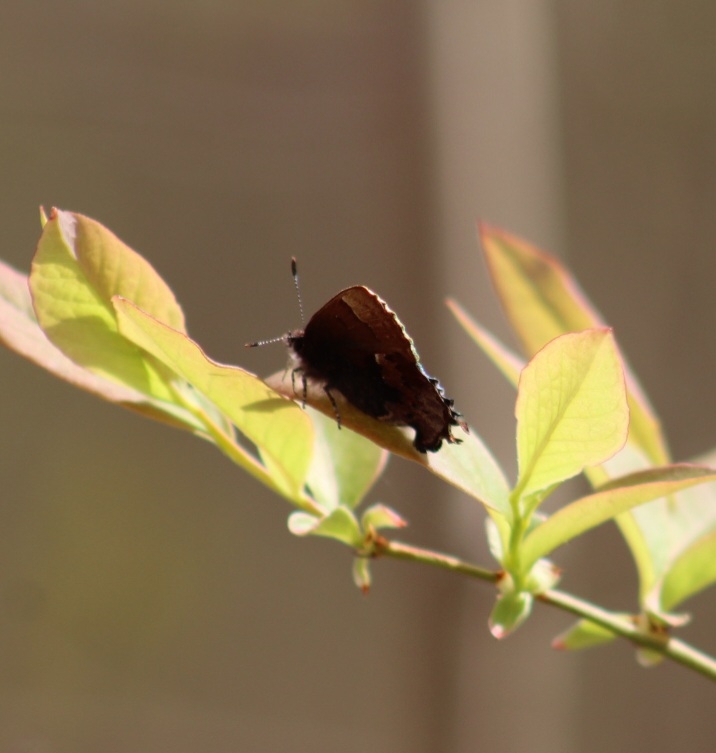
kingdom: Animalia
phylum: Arthropoda
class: Insecta
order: Lepidoptera
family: Lycaenidae
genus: Incisalia
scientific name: Incisalia henrici
